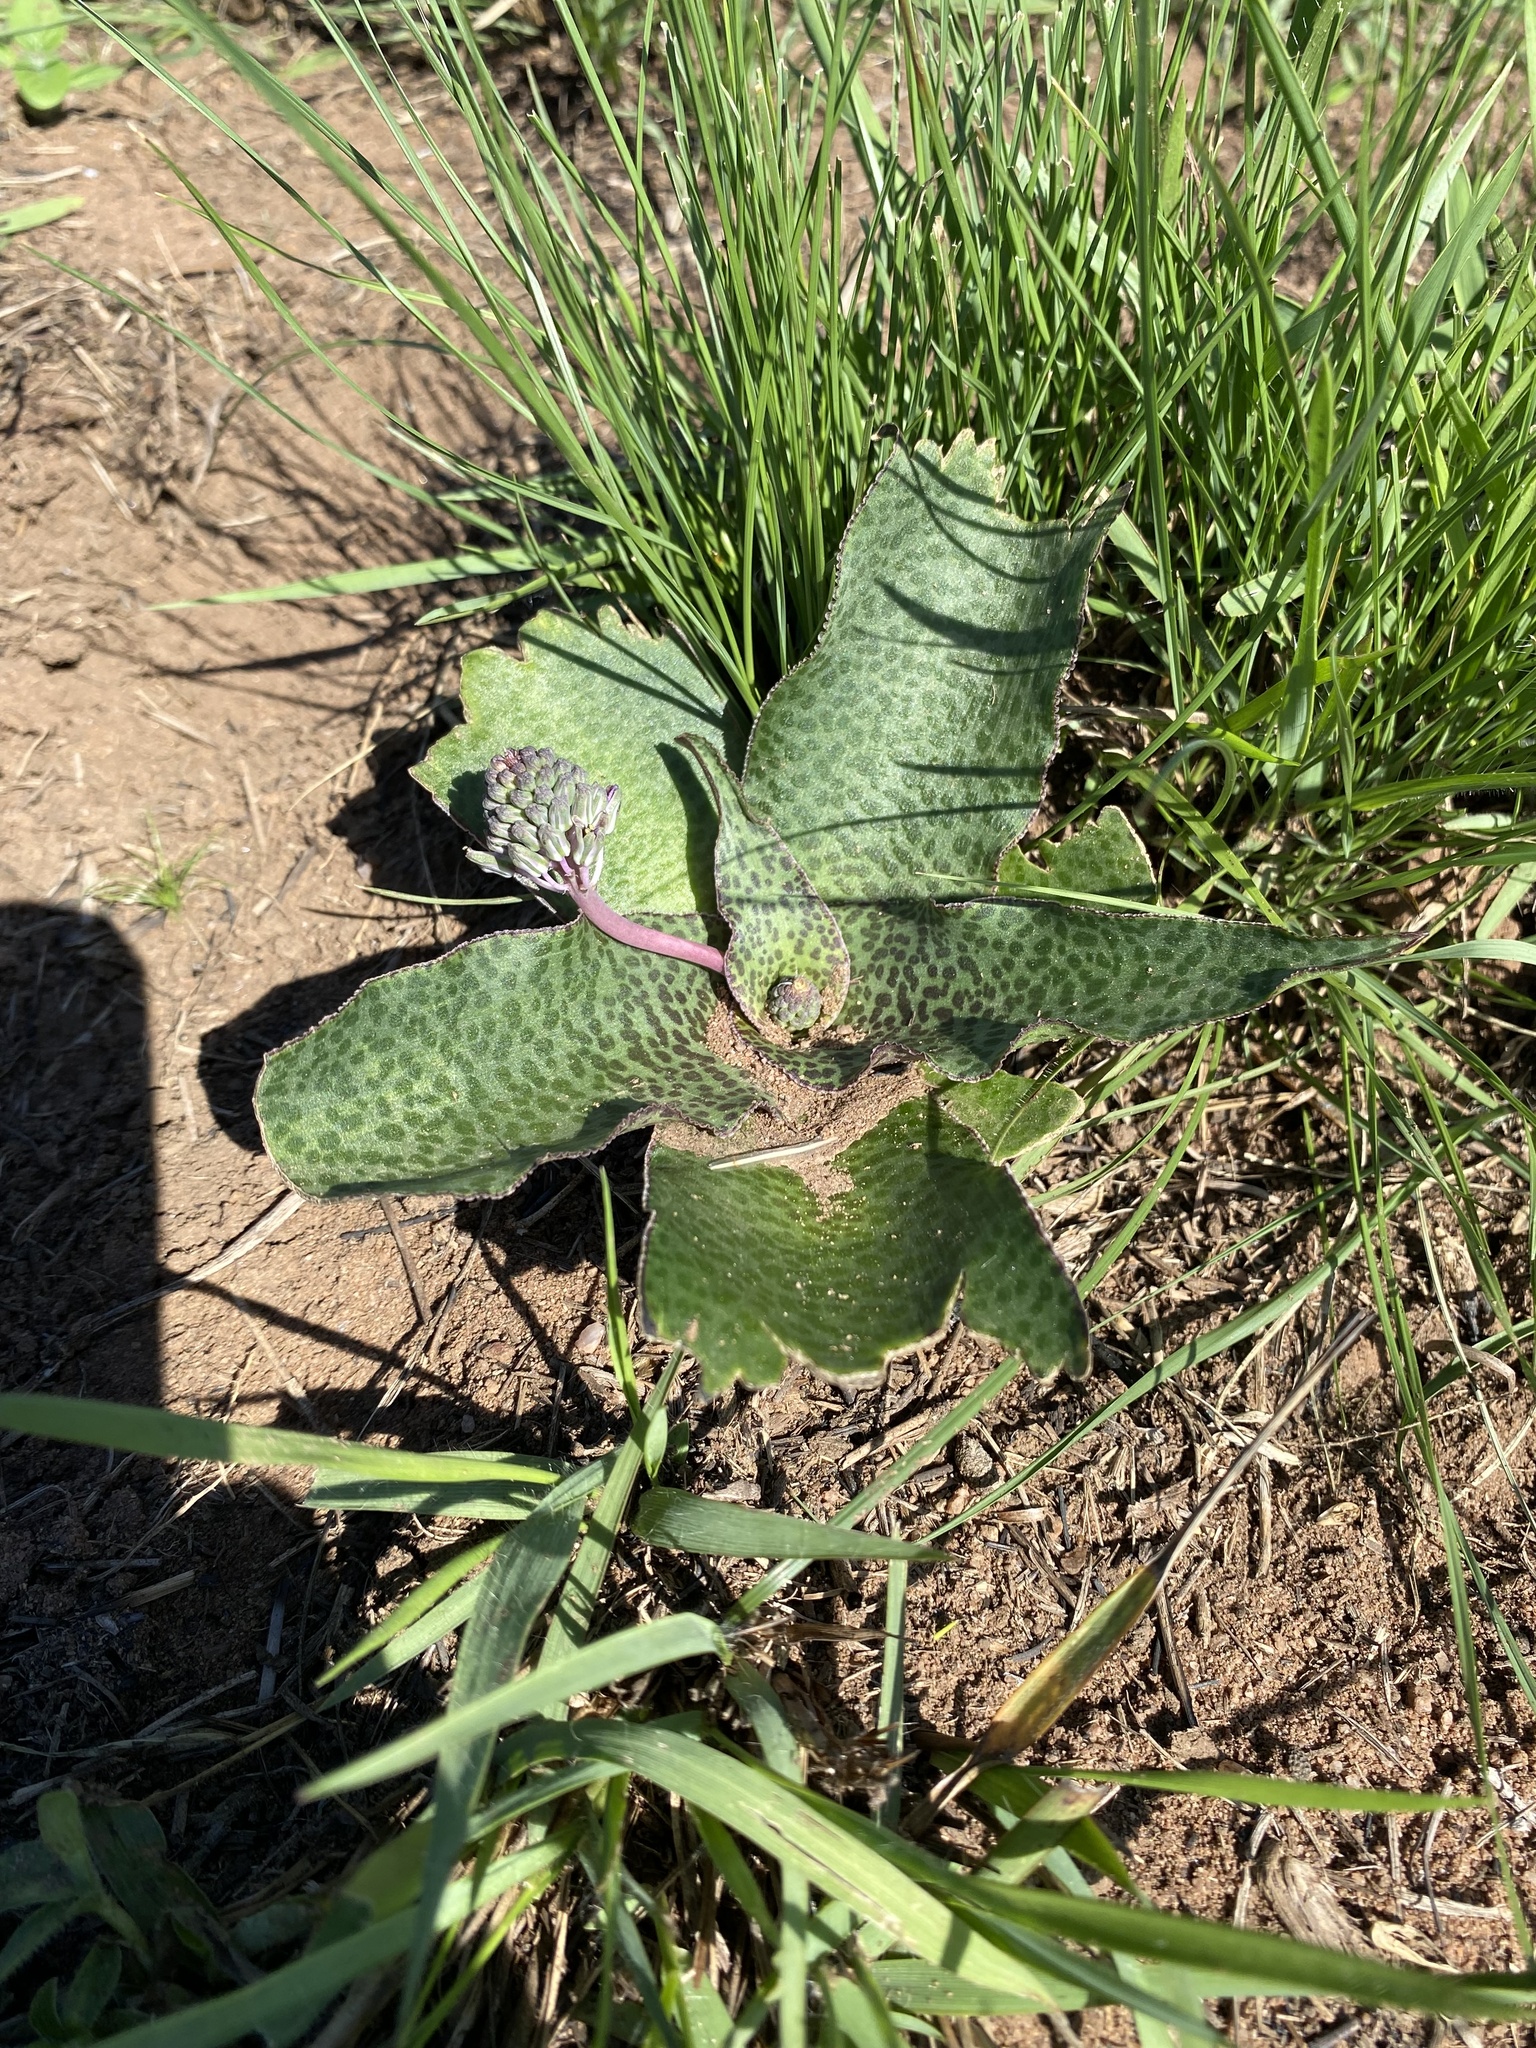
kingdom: Plantae
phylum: Tracheophyta
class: Liliopsida
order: Asparagales
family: Asparagaceae
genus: Ledebouria
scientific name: Ledebouria ovatifolia
